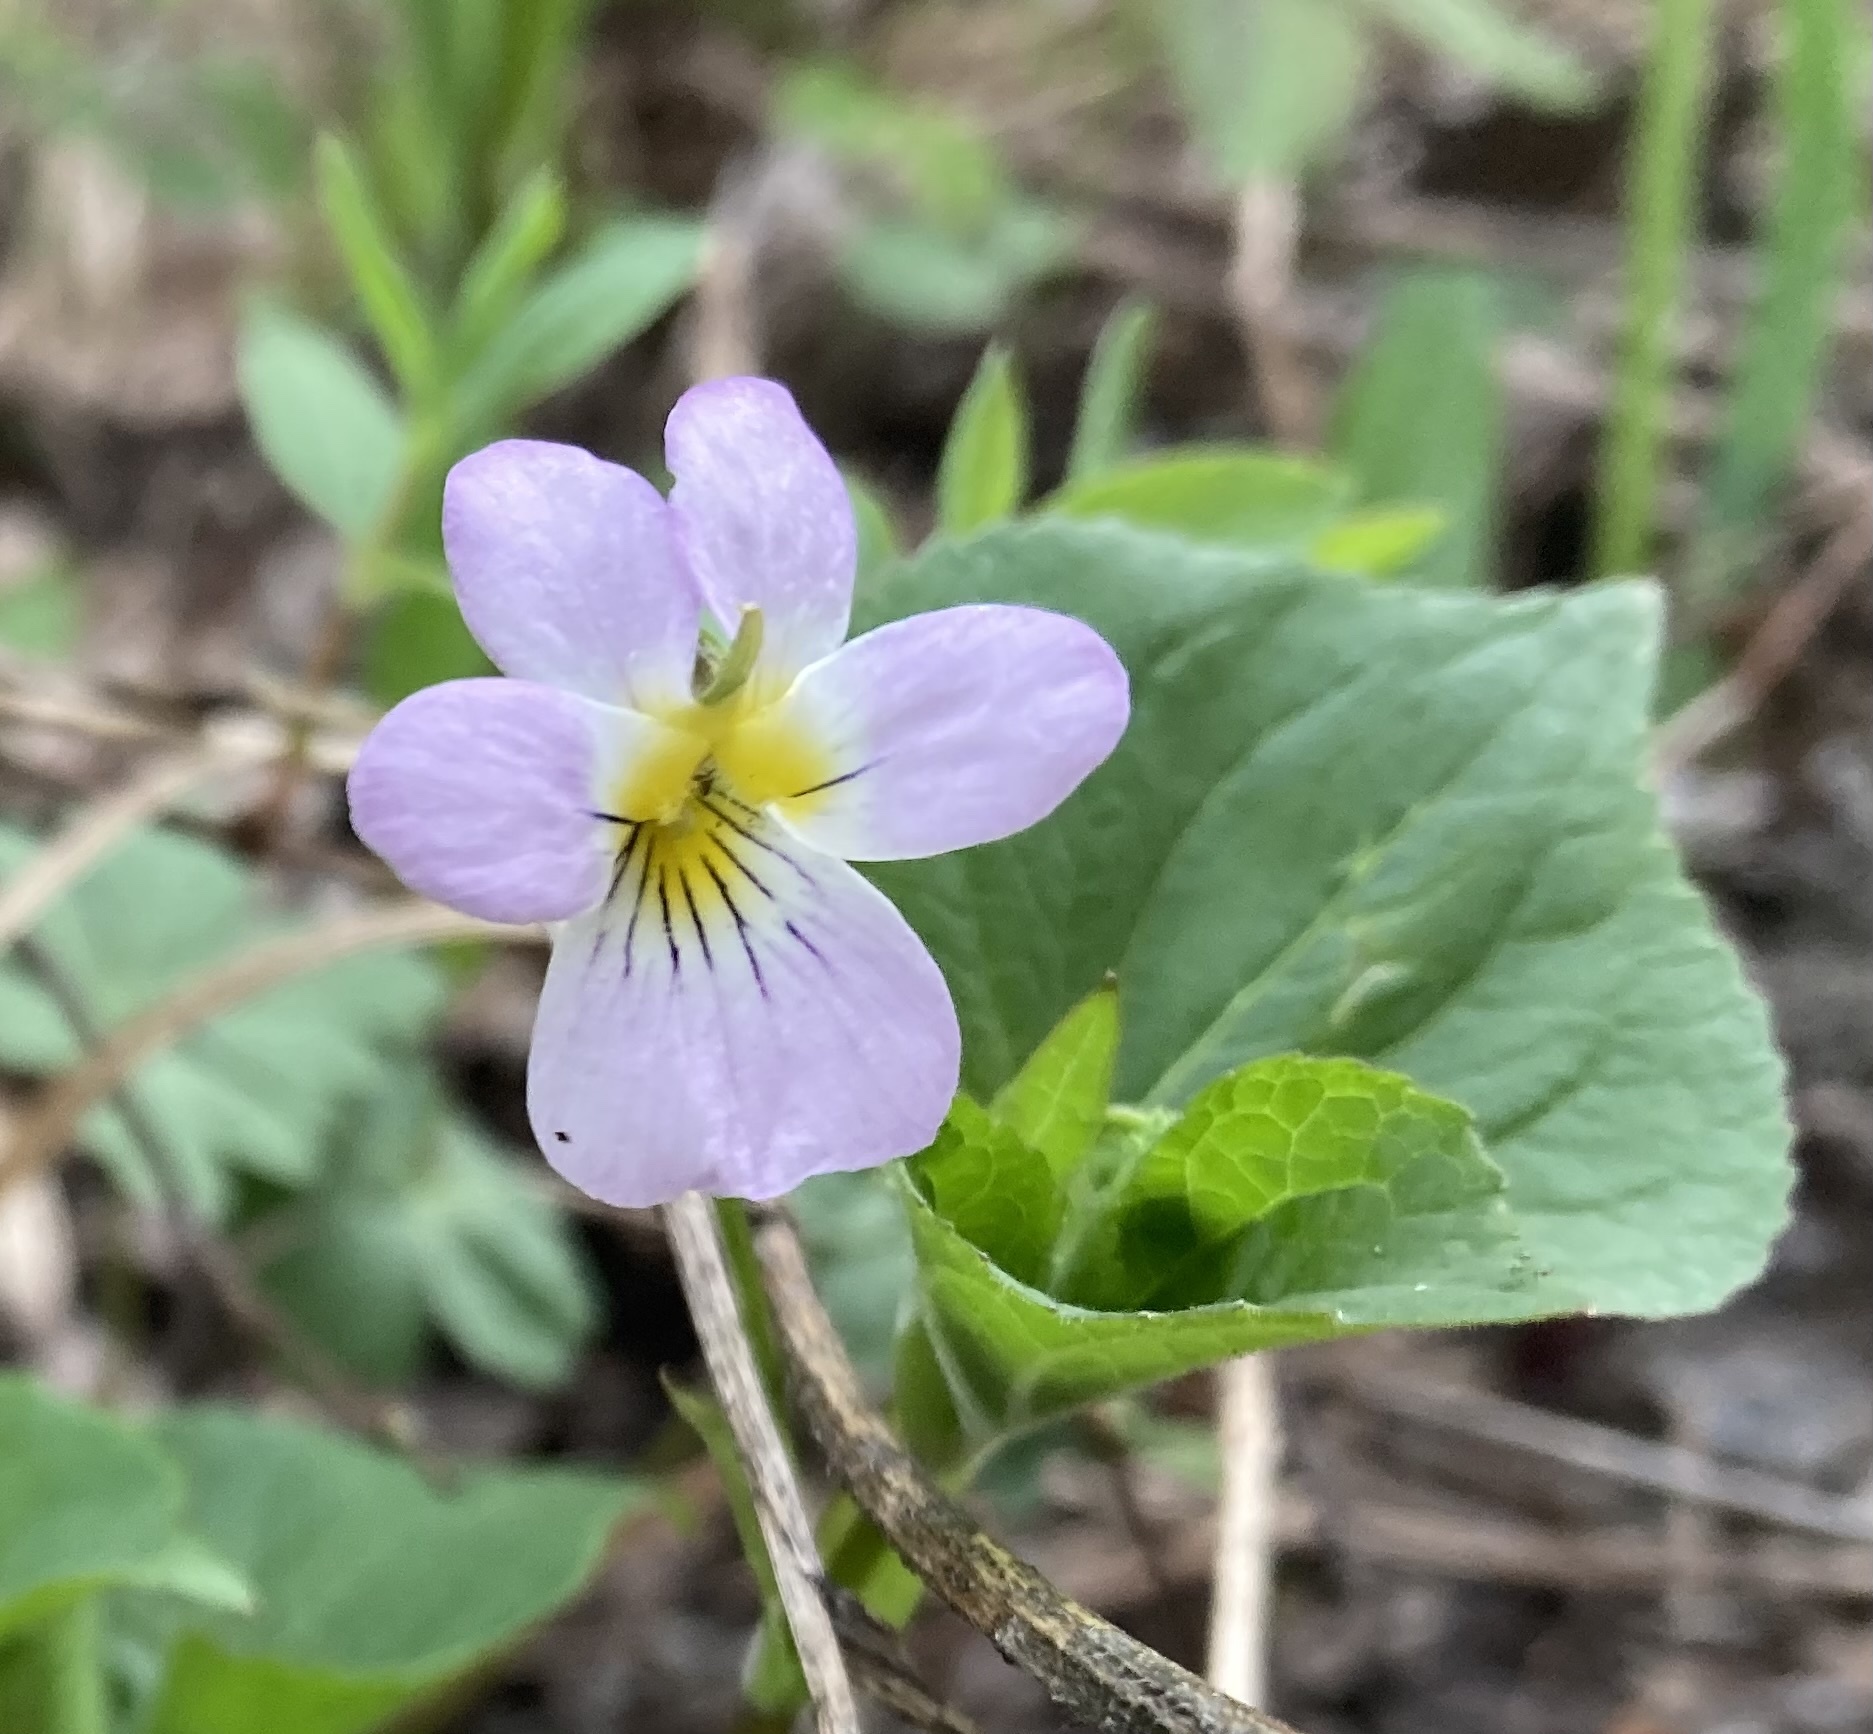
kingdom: Plantae
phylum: Tracheophyta
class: Magnoliopsida
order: Malpighiales
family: Violaceae
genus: Viola
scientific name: Viola canadensis
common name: Canada violet
